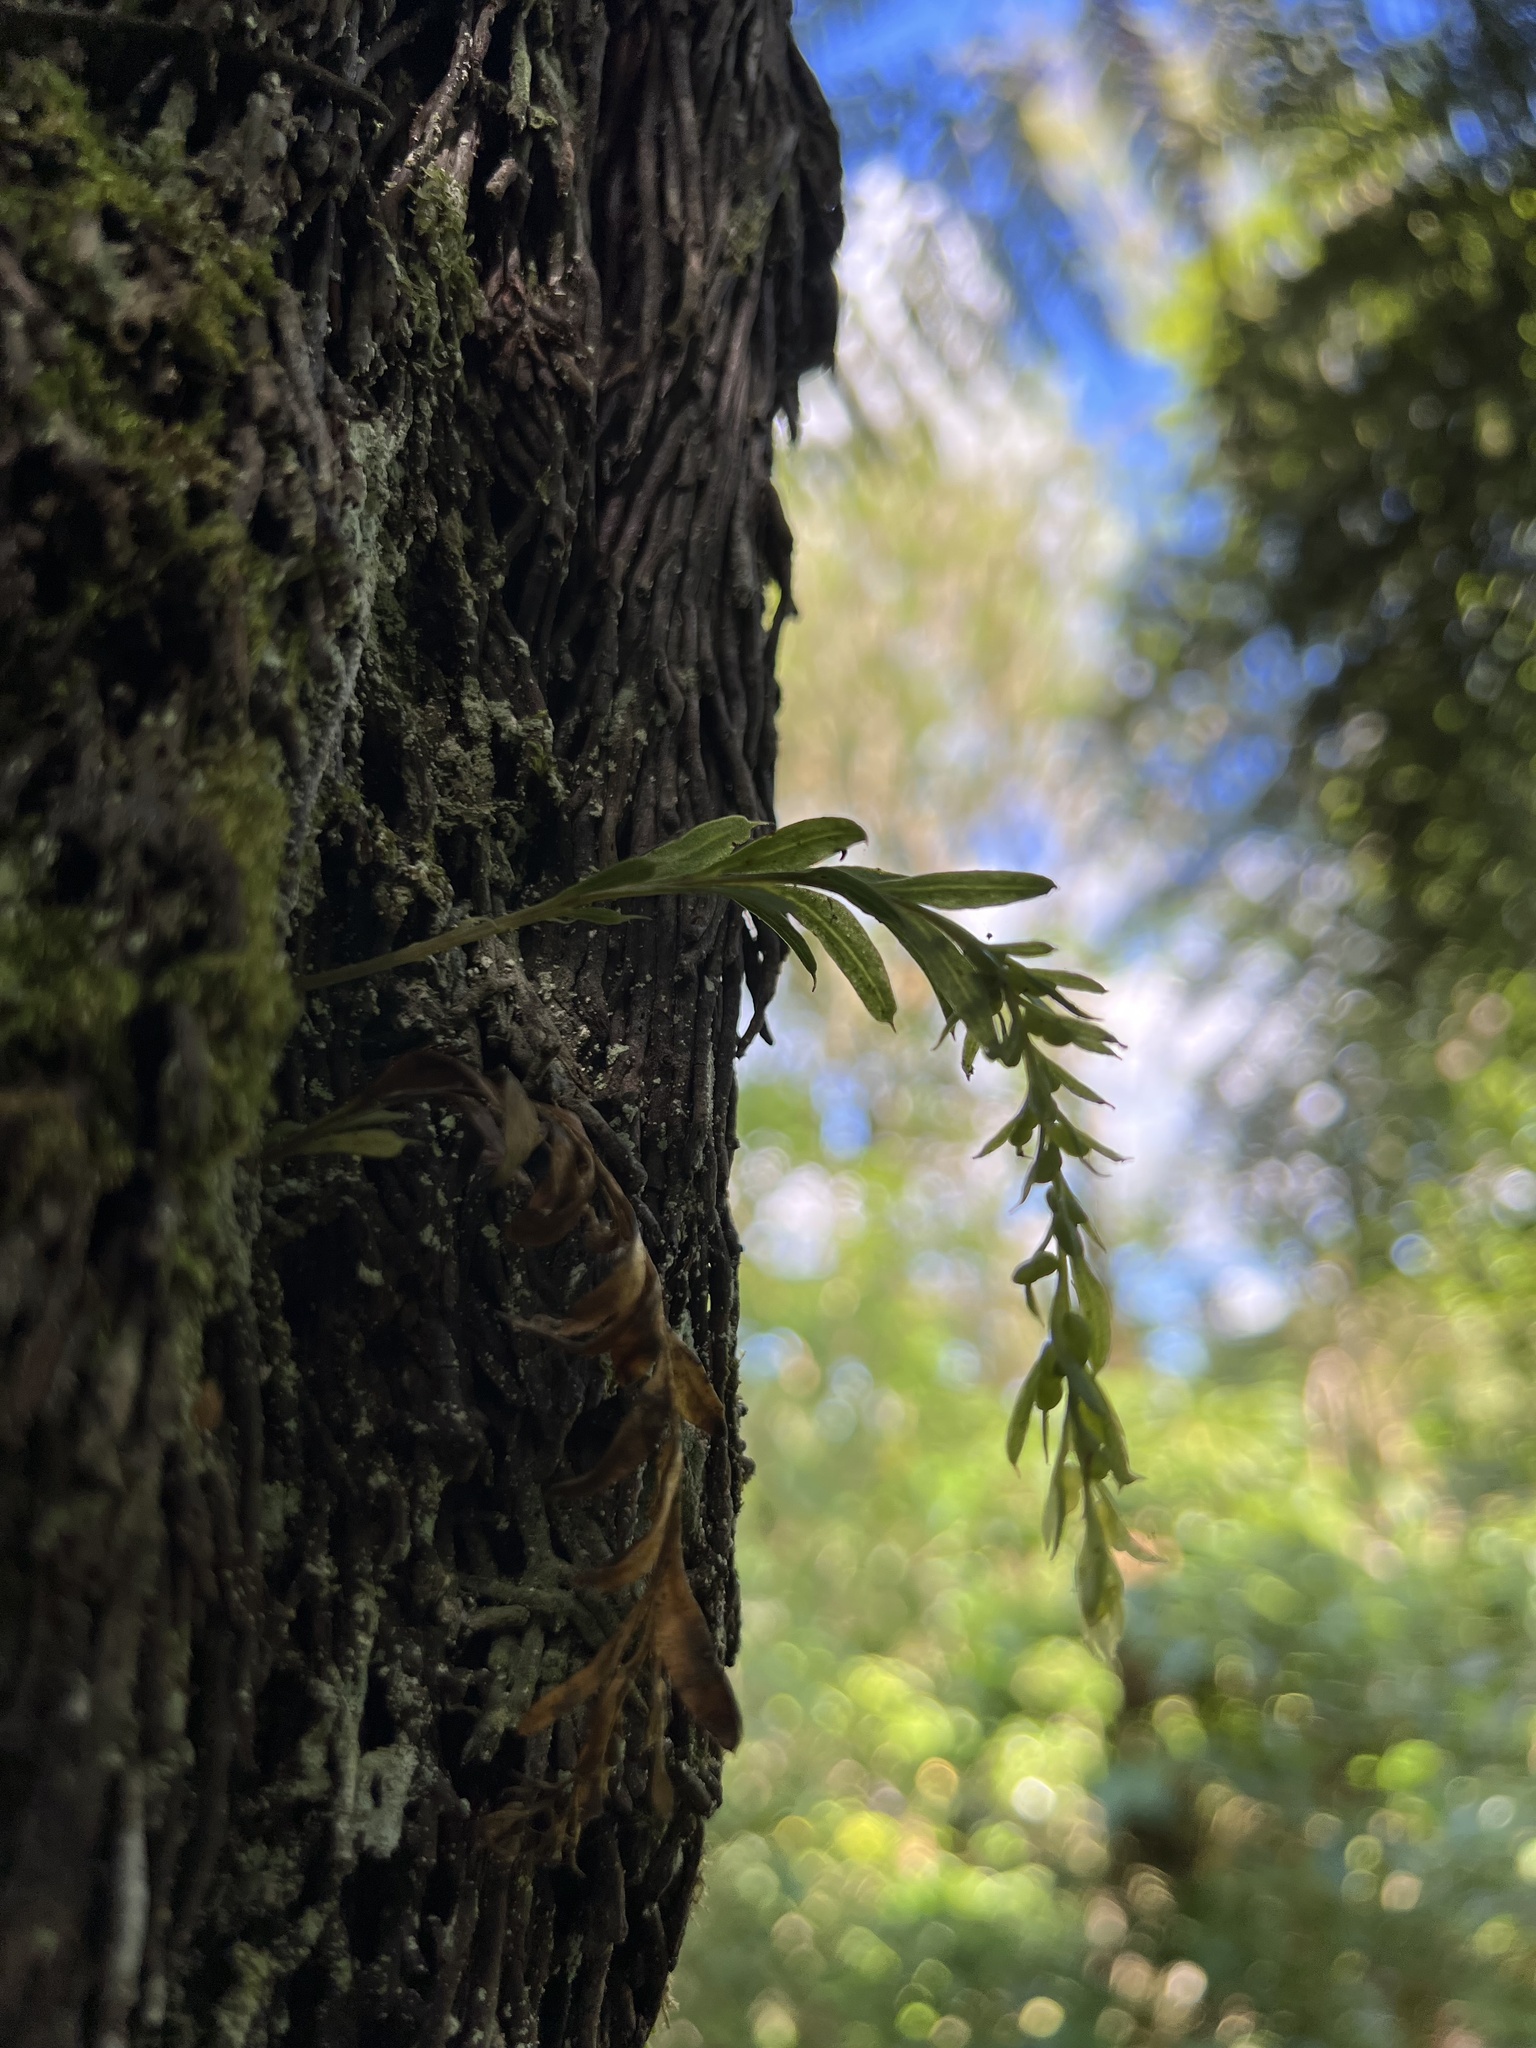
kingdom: Plantae
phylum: Tracheophyta
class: Polypodiopsida
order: Psilotales
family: Psilotaceae
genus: Tmesipteris
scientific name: Tmesipteris elongata
